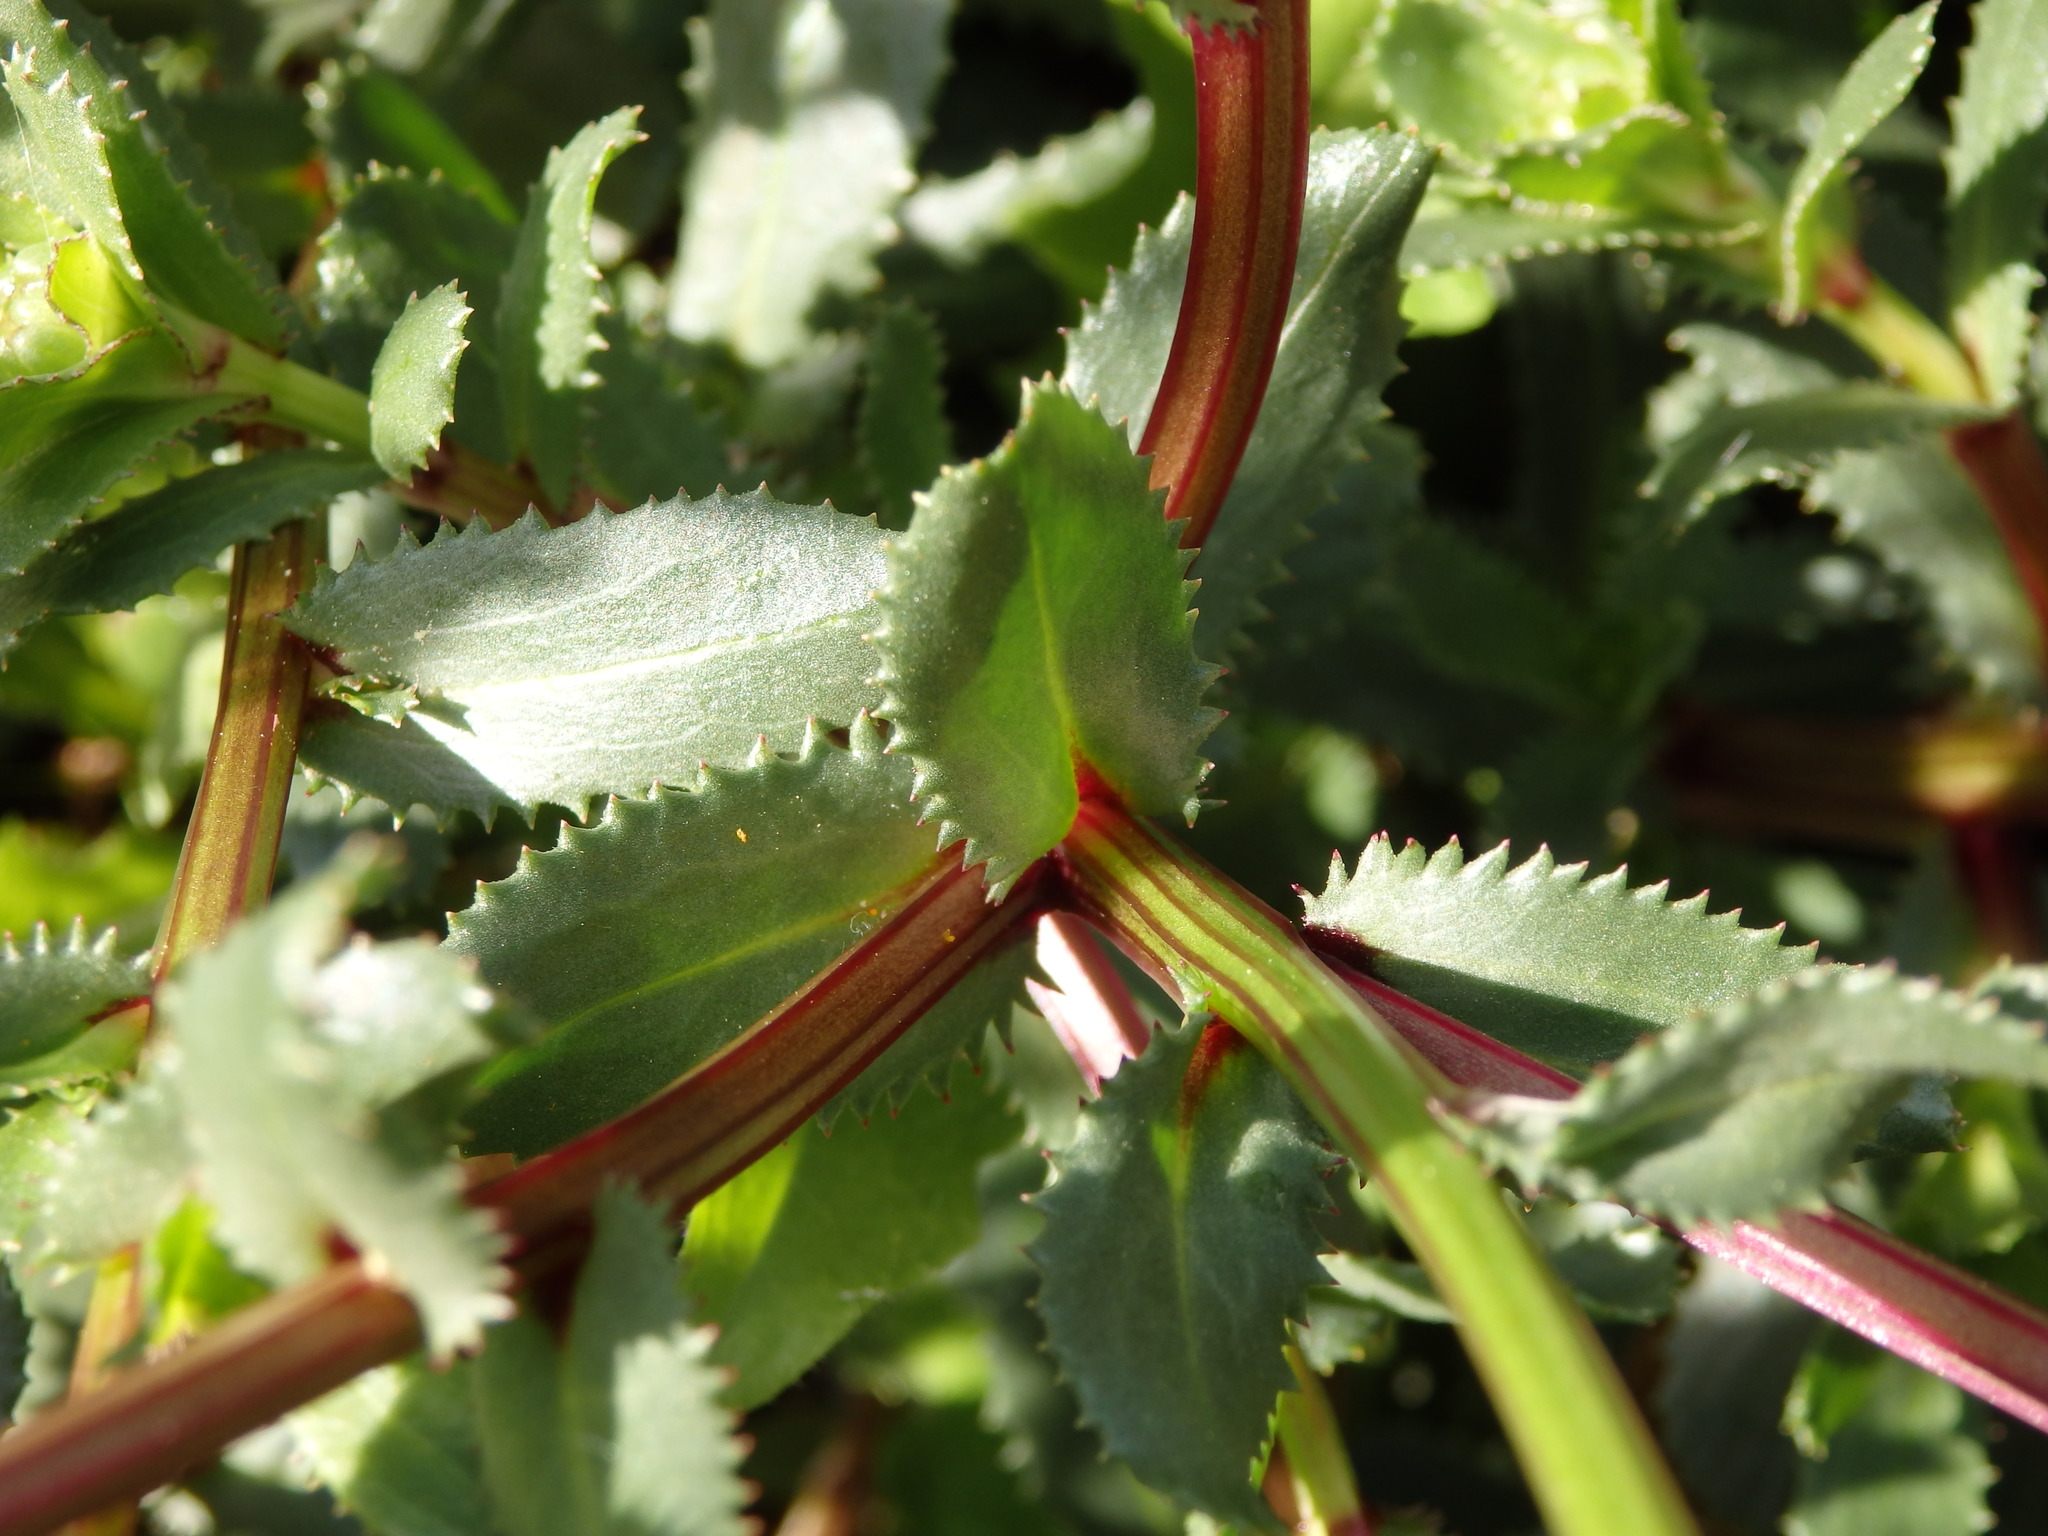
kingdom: Plantae
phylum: Tracheophyta
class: Magnoliopsida
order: Asterales
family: Asteraceae
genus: Coleostephus
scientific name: Coleostephus myconis
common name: Mediterranean marigold
